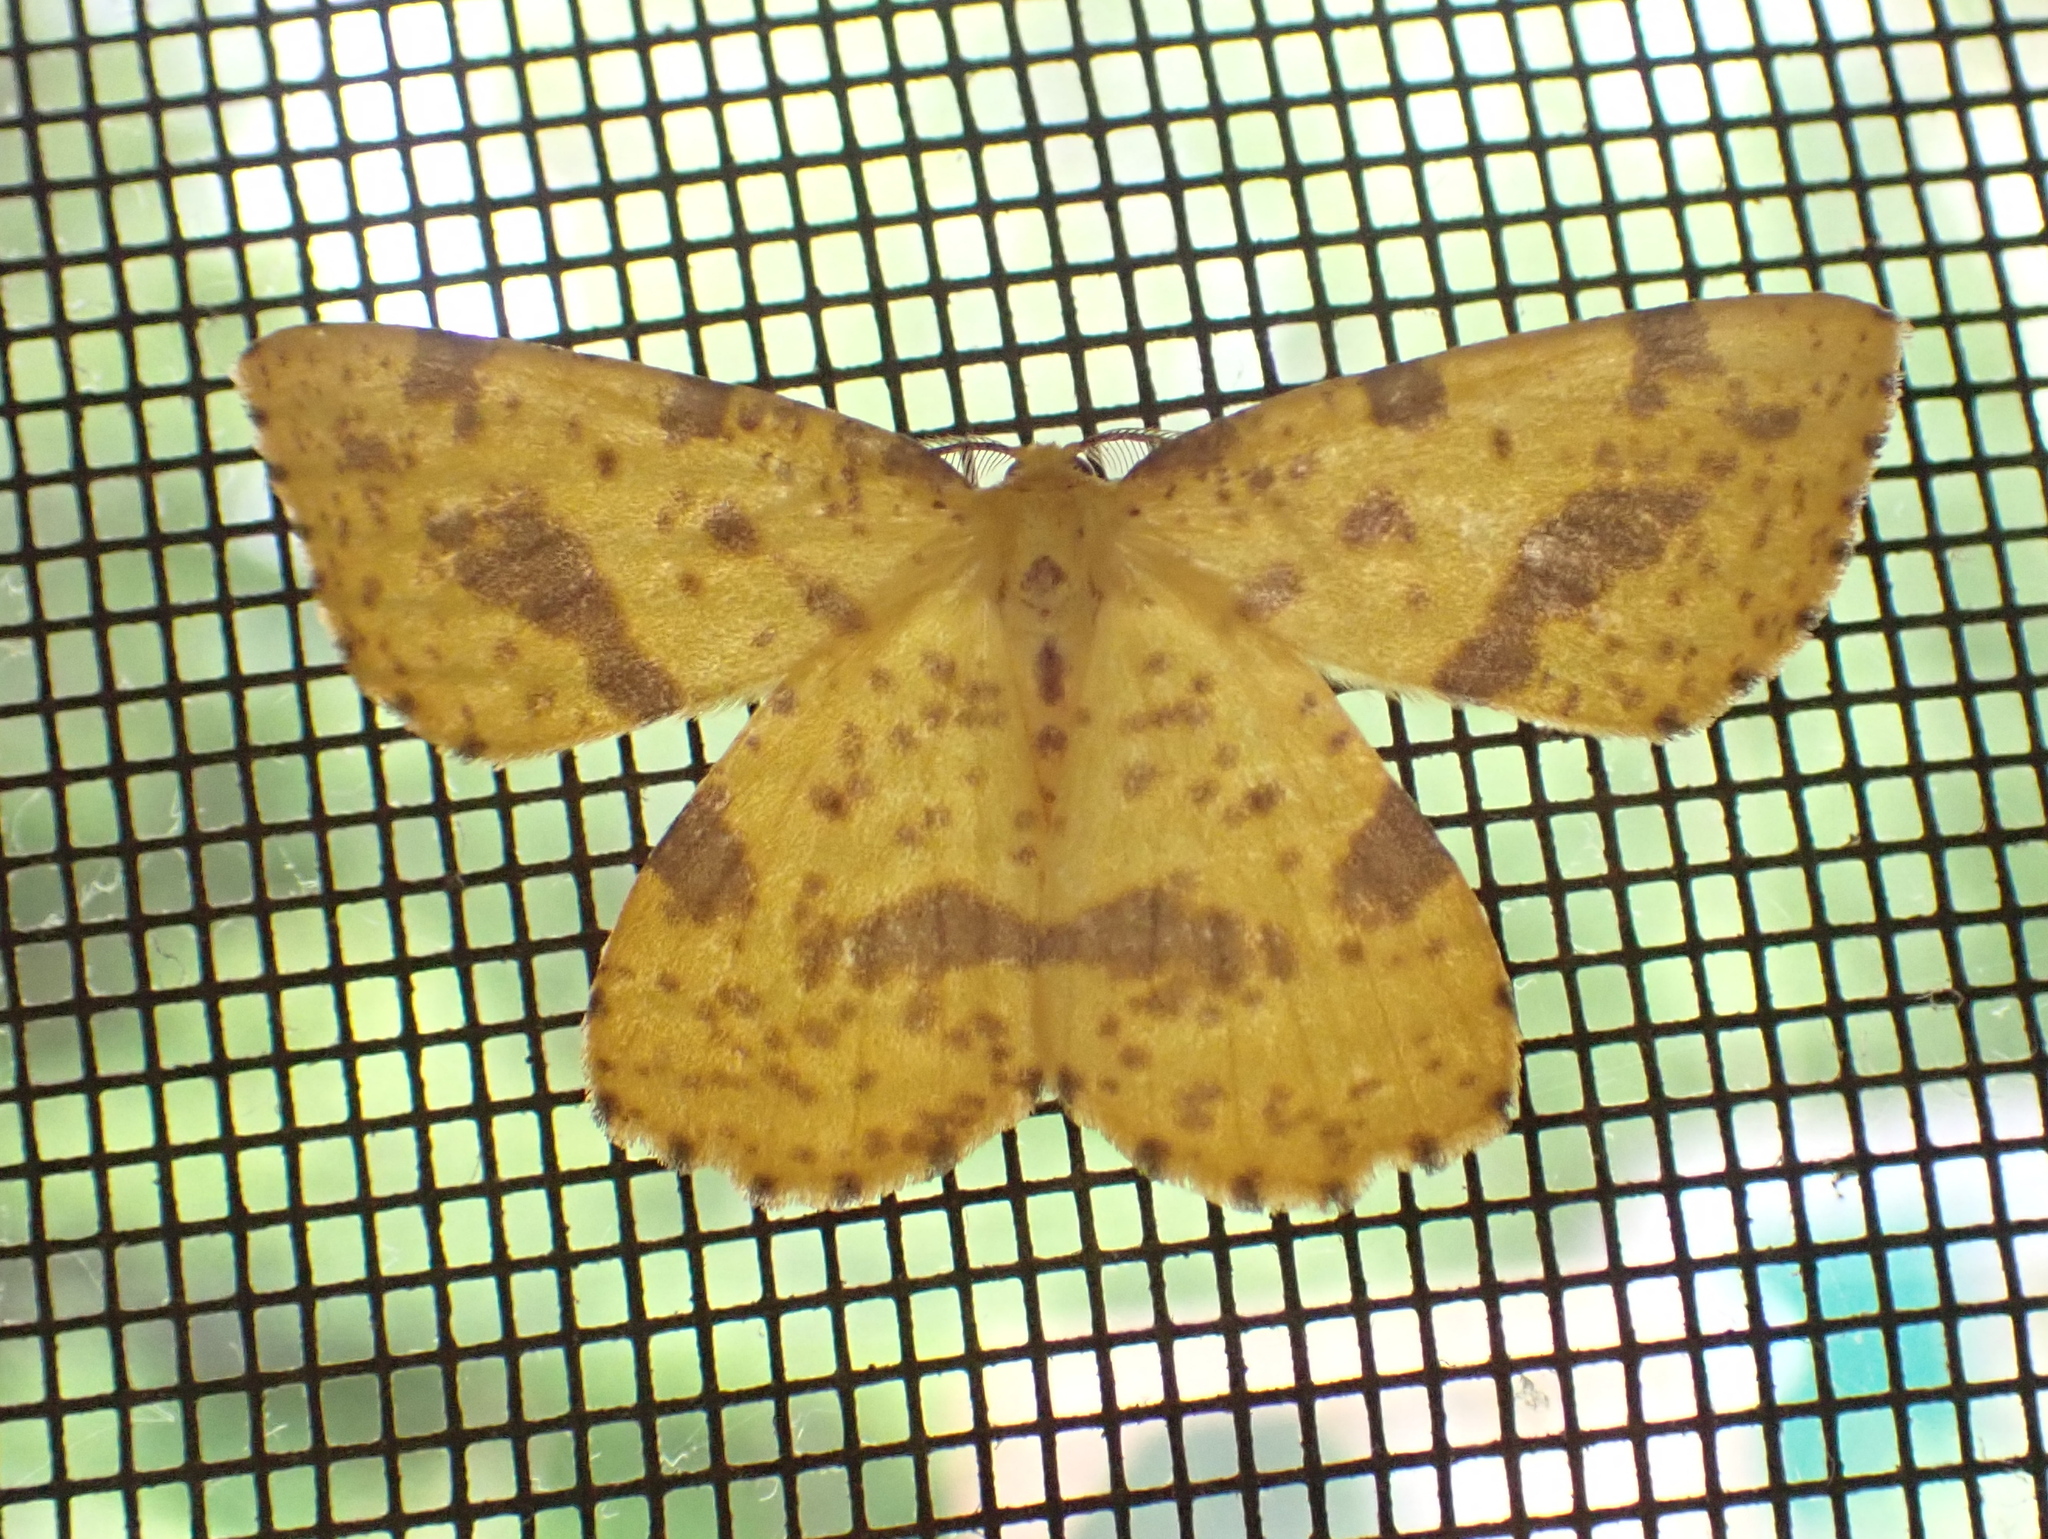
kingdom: Animalia
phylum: Arthropoda
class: Insecta
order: Lepidoptera
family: Geometridae
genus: Xanthotype
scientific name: Xanthotype
